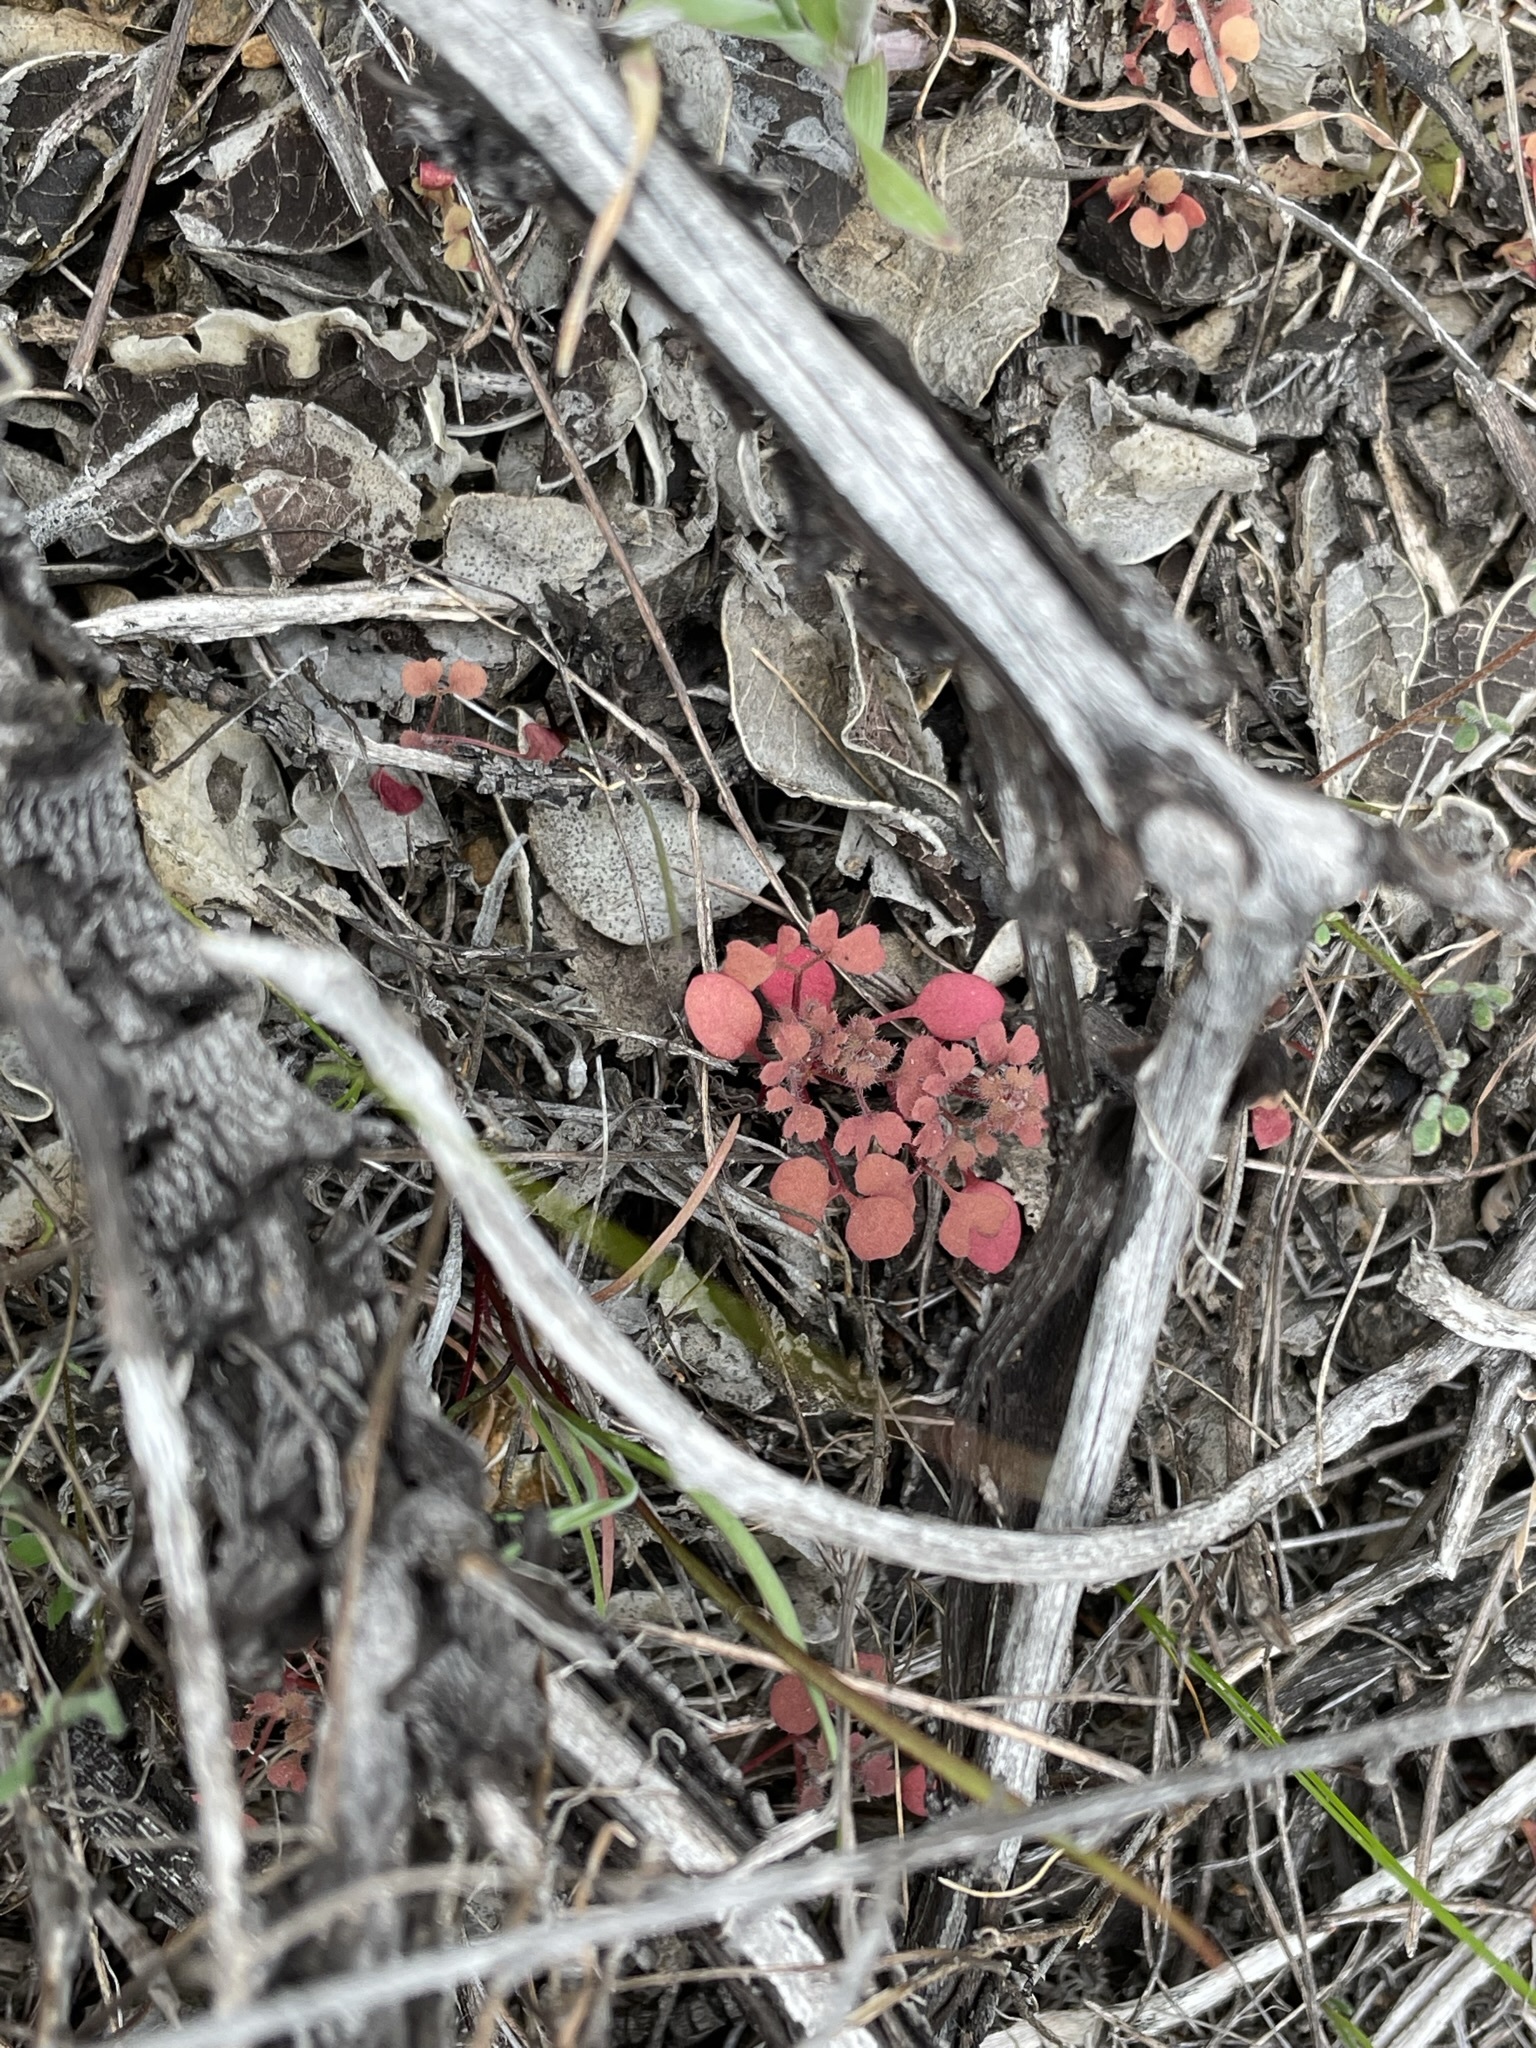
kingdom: Plantae
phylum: Tracheophyta
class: Magnoliopsida
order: Caryophyllales
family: Polygonaceae
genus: Pterostegia
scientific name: Pterostegia drymarioides
